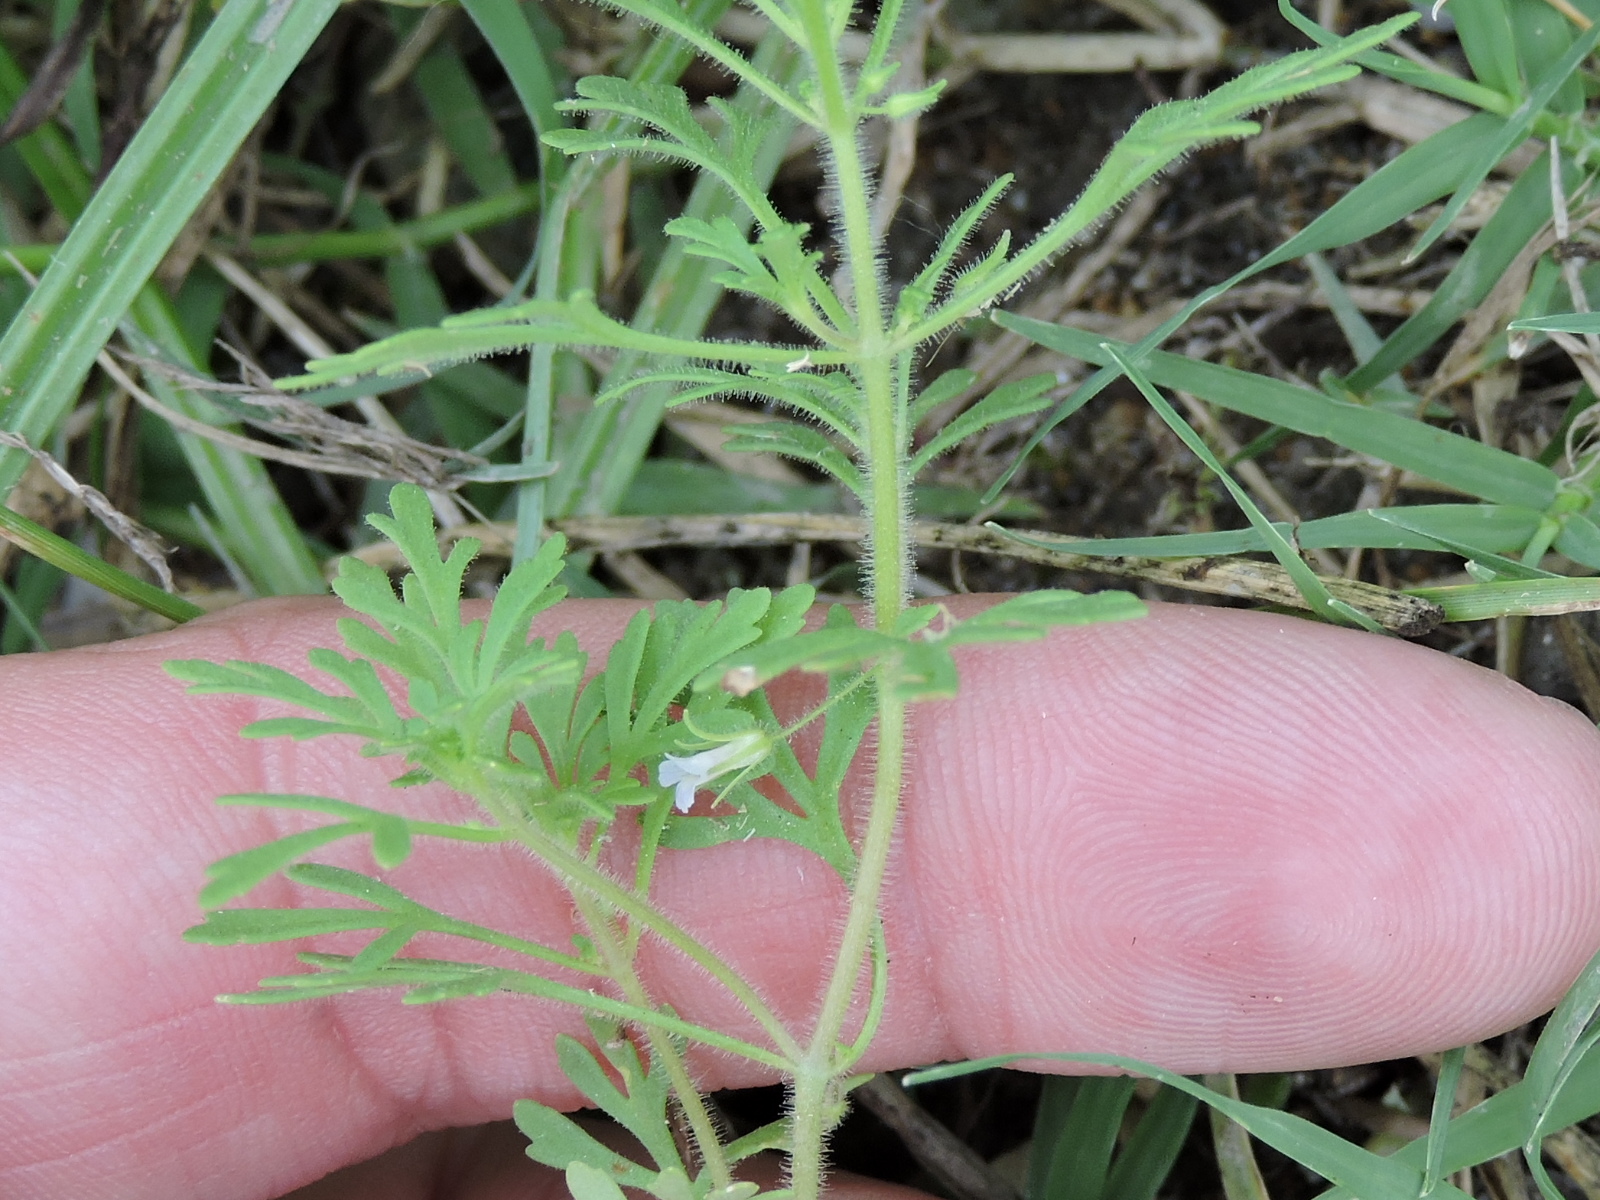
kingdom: Plantae
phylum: Tracheophyta
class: Magnoliopsida
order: Lamiales
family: Plantaginaceae
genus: Leucospora
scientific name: Leucospora multifida
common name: Narrow-leaf paleseed
